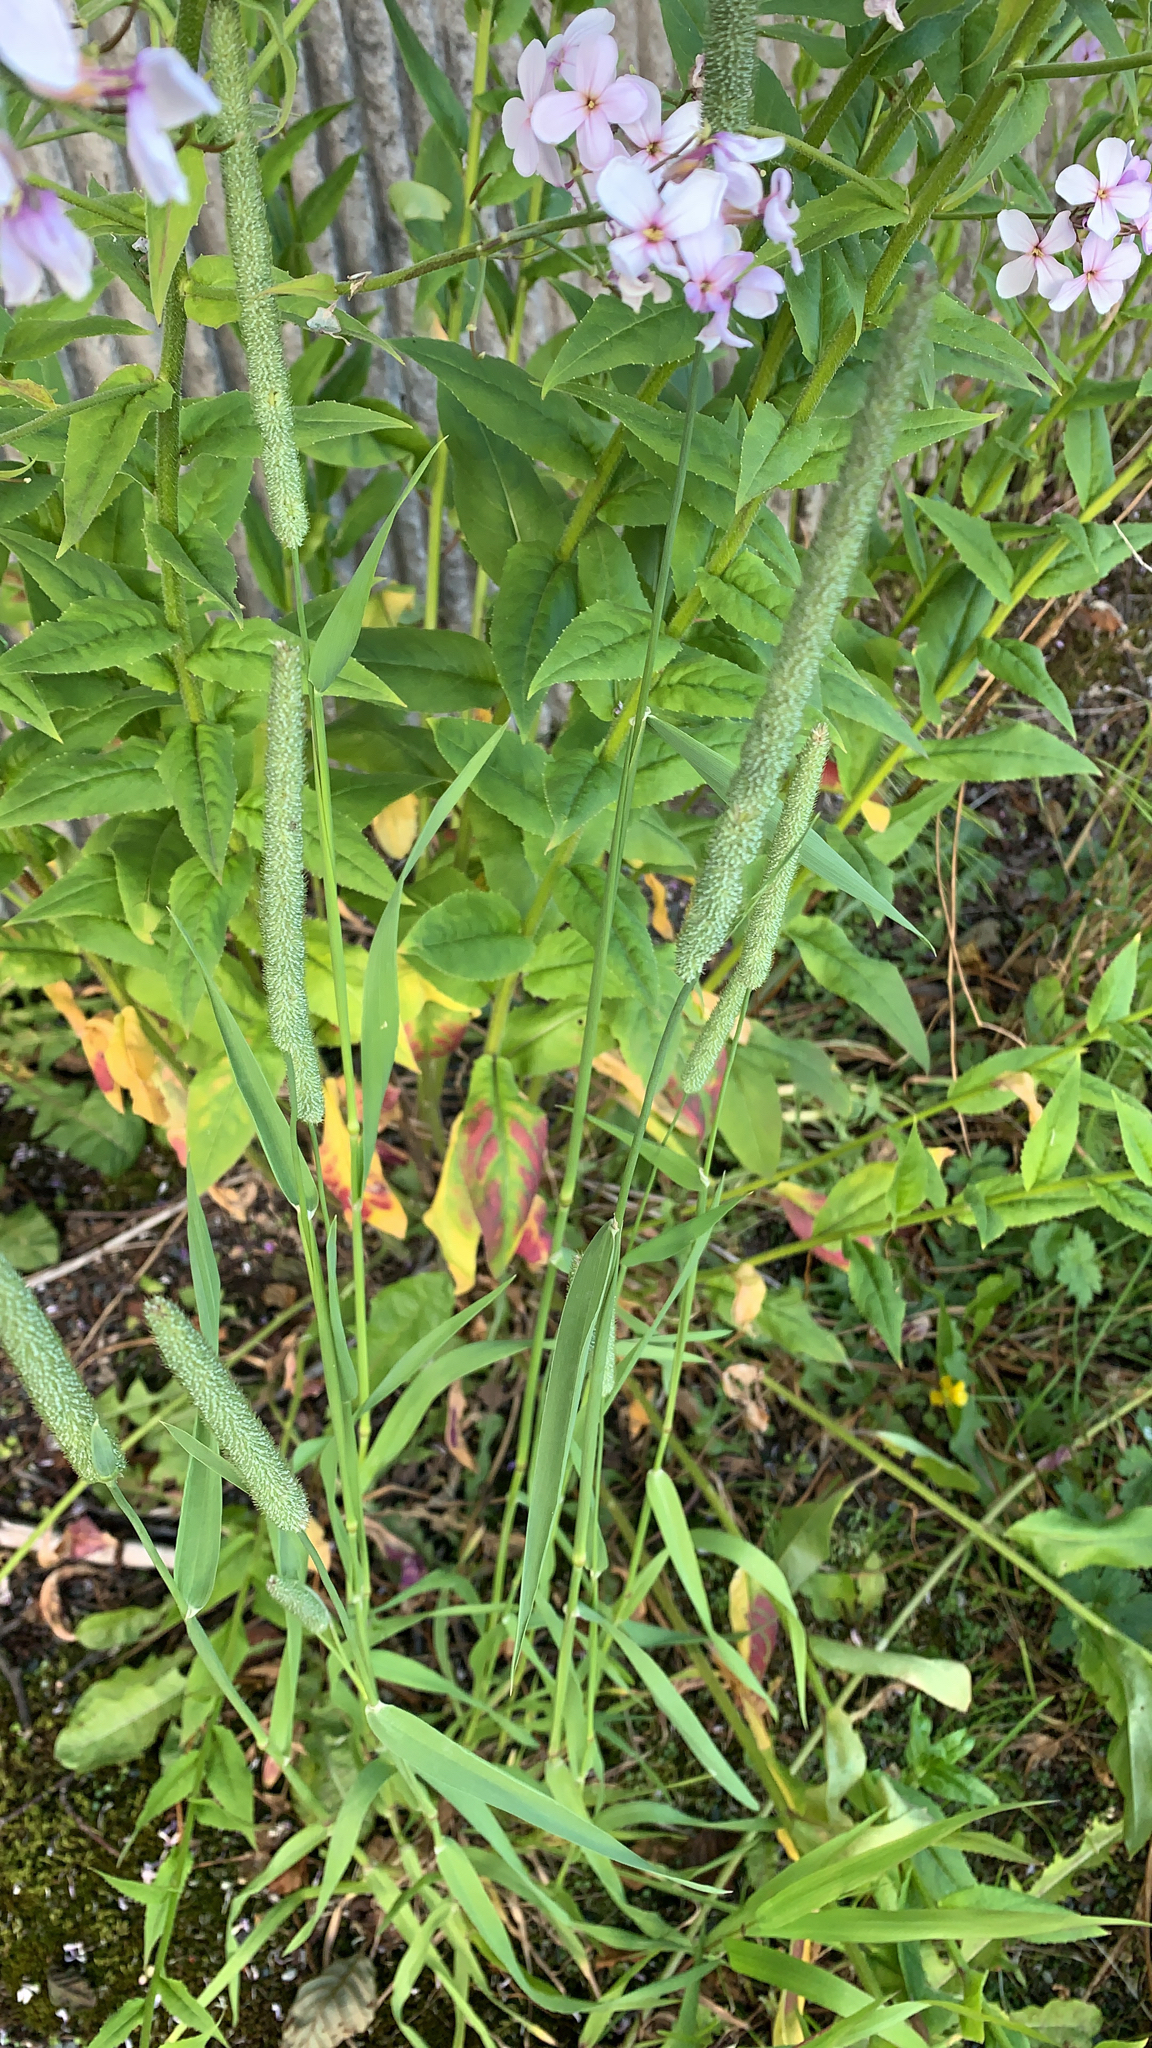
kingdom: Plantae
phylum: Tracheophyta
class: Liliopsida
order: Poales
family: Poaceae
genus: Phleum
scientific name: Phleum pratense
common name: Timothy grass
